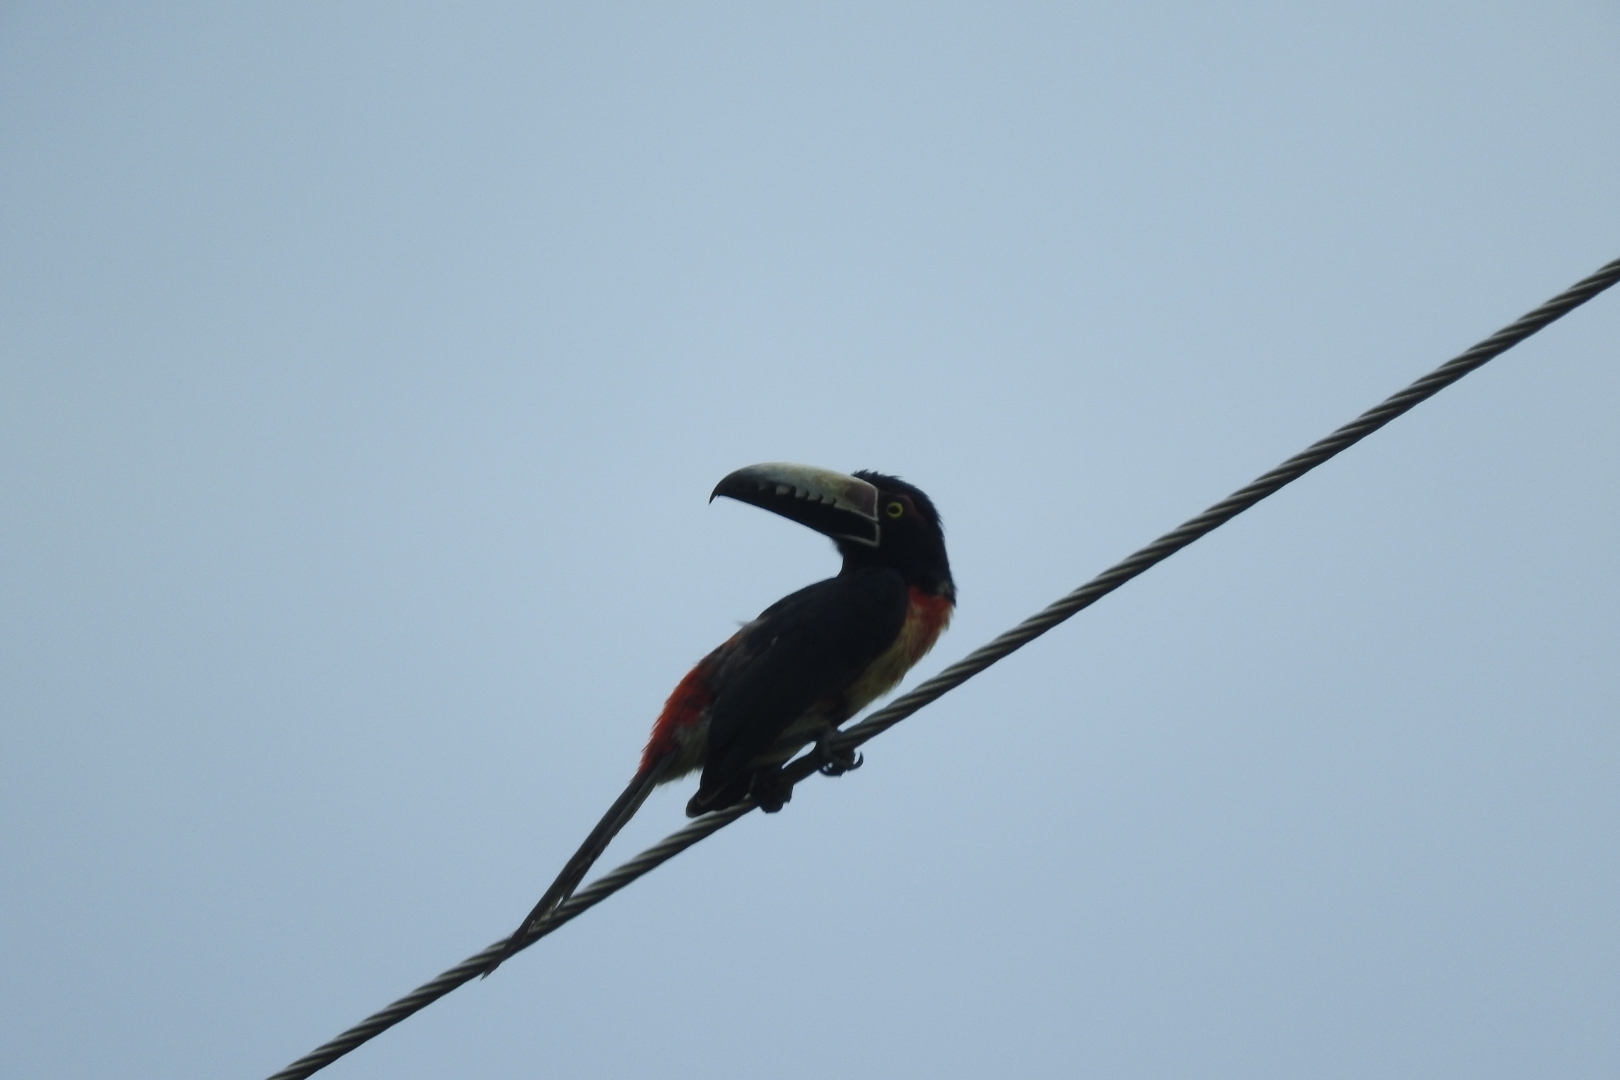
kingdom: Animalia
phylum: Chordata
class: Aves
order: Piciformes
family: Ramphastidae
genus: Pteroglossus
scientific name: Pteroglossus torquatus
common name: Collared aracari
